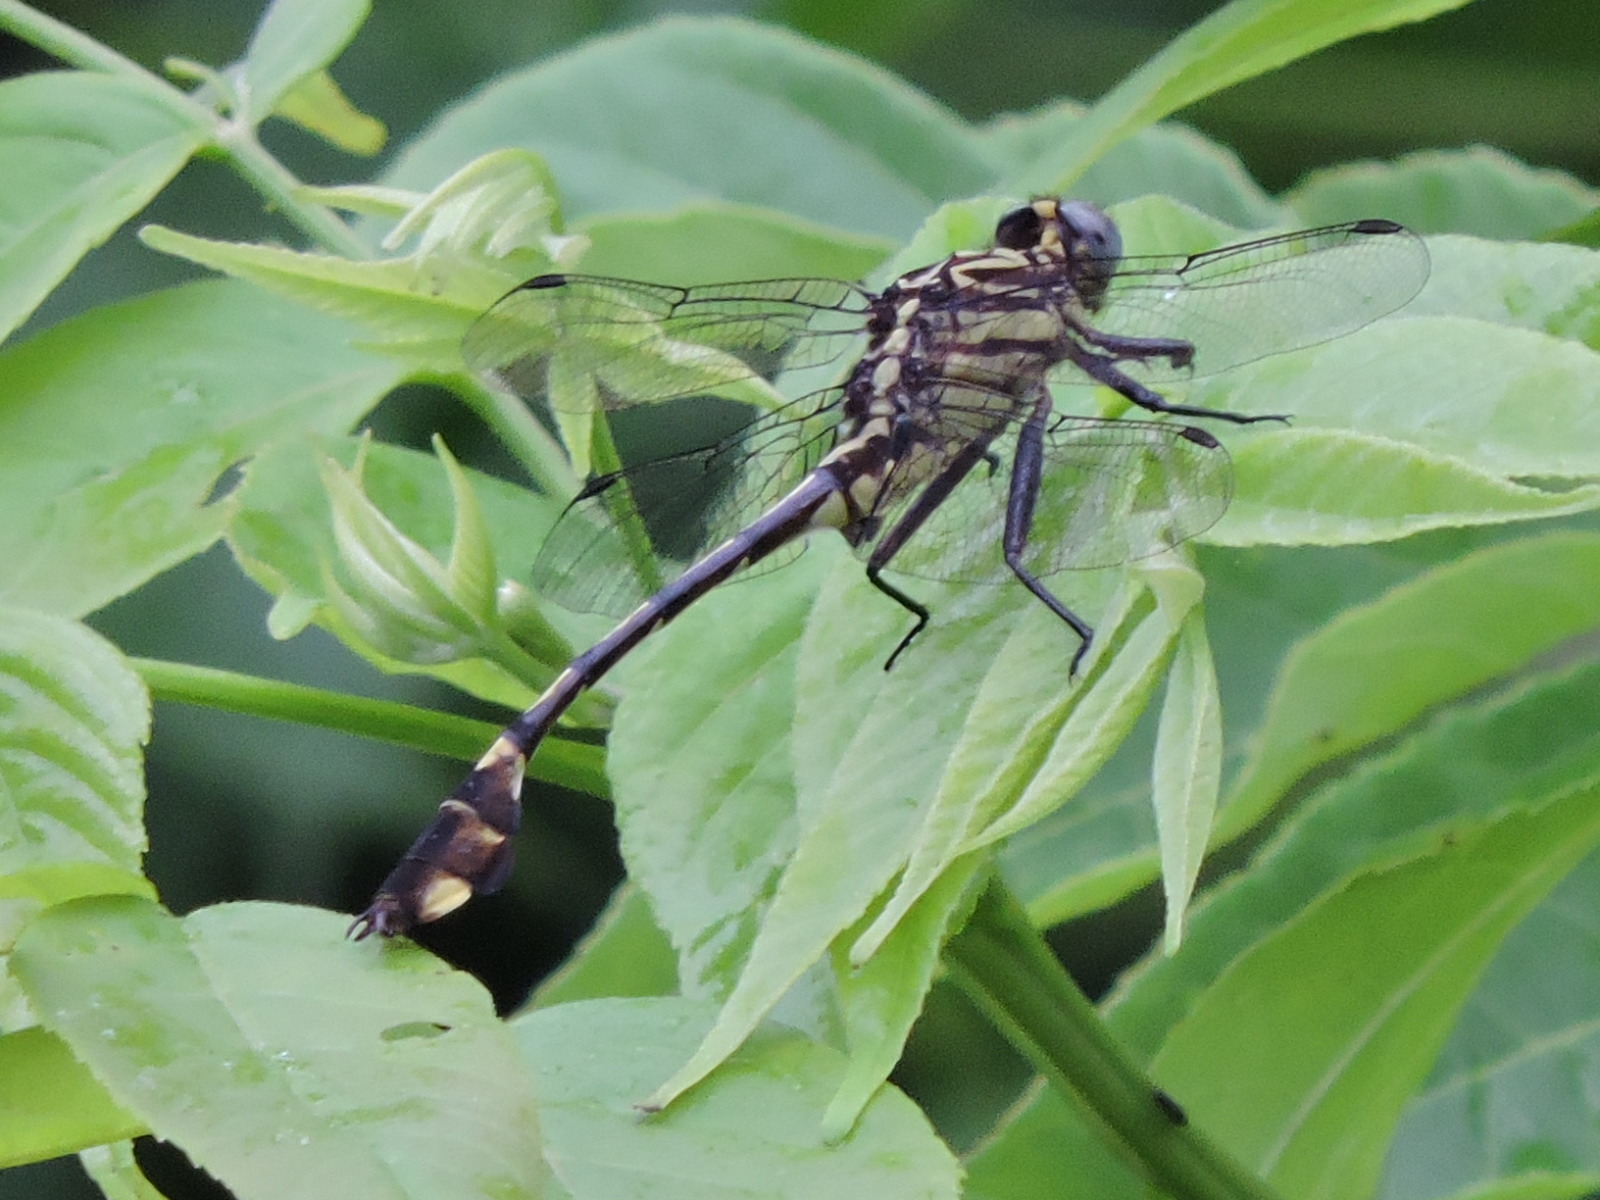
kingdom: Animalia
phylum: Arthropoda
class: Insecta
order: Odonata
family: Gomphidae
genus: Gomphurus
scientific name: Gomphurus vastus
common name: Cobra clubtail
